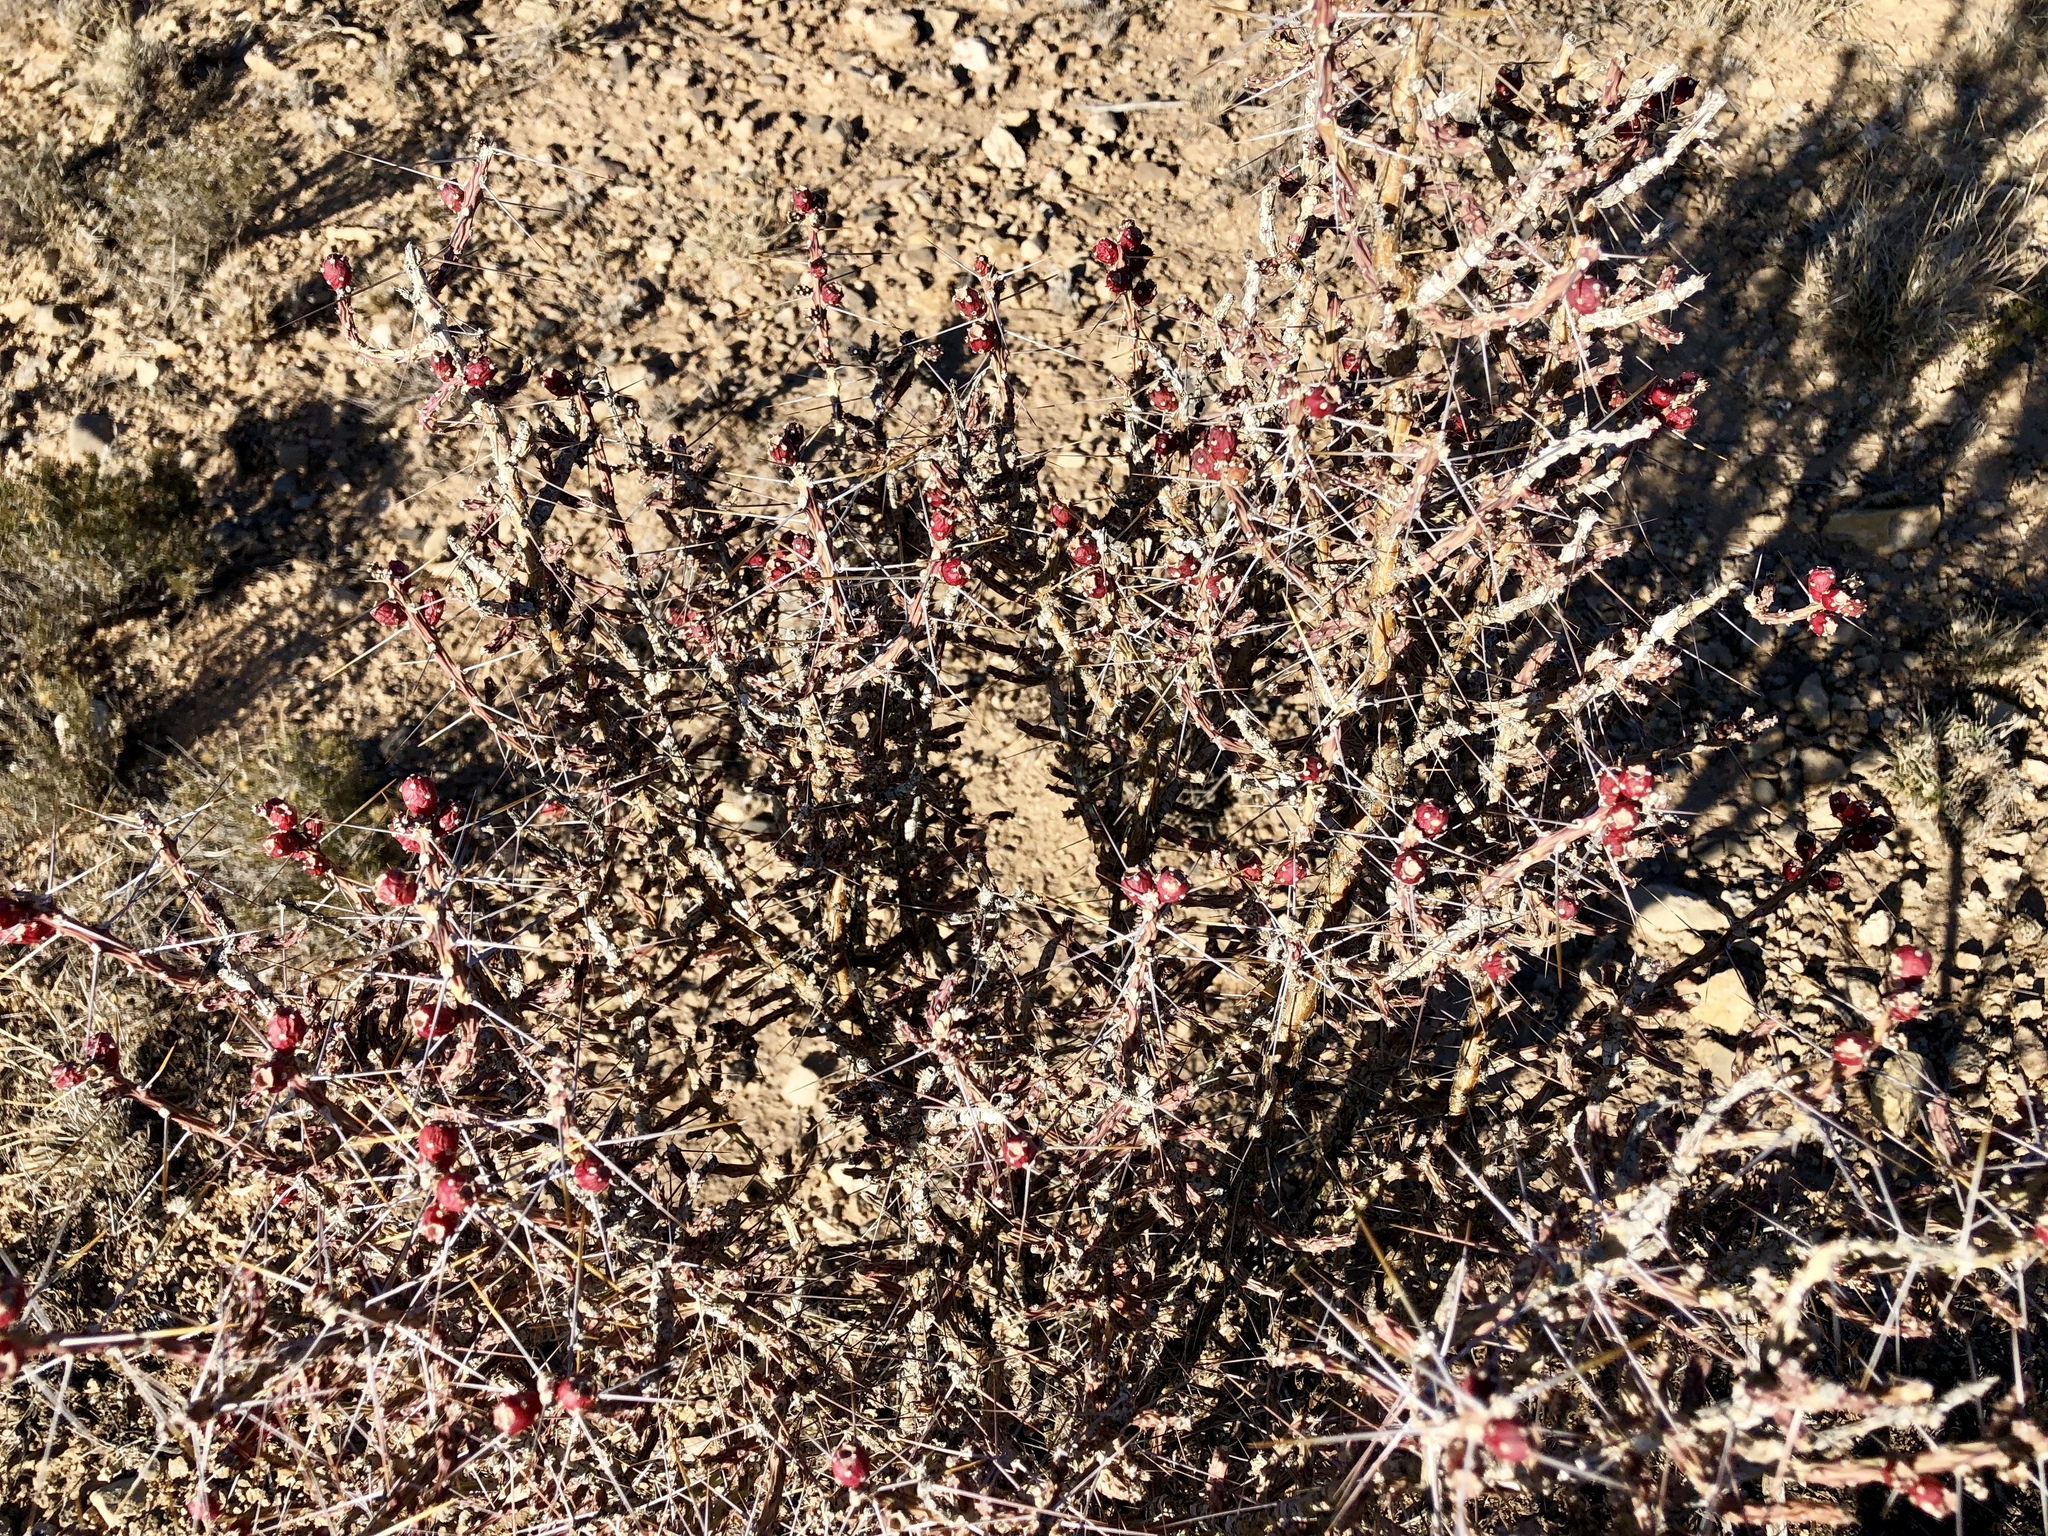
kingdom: Plantae
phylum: Tracheophyta
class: Magnoliopsida
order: Caryophyllales
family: Cactaceae
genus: Cylindropuntia
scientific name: Cylindropuntia leptocaulis
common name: Christmas cactus
